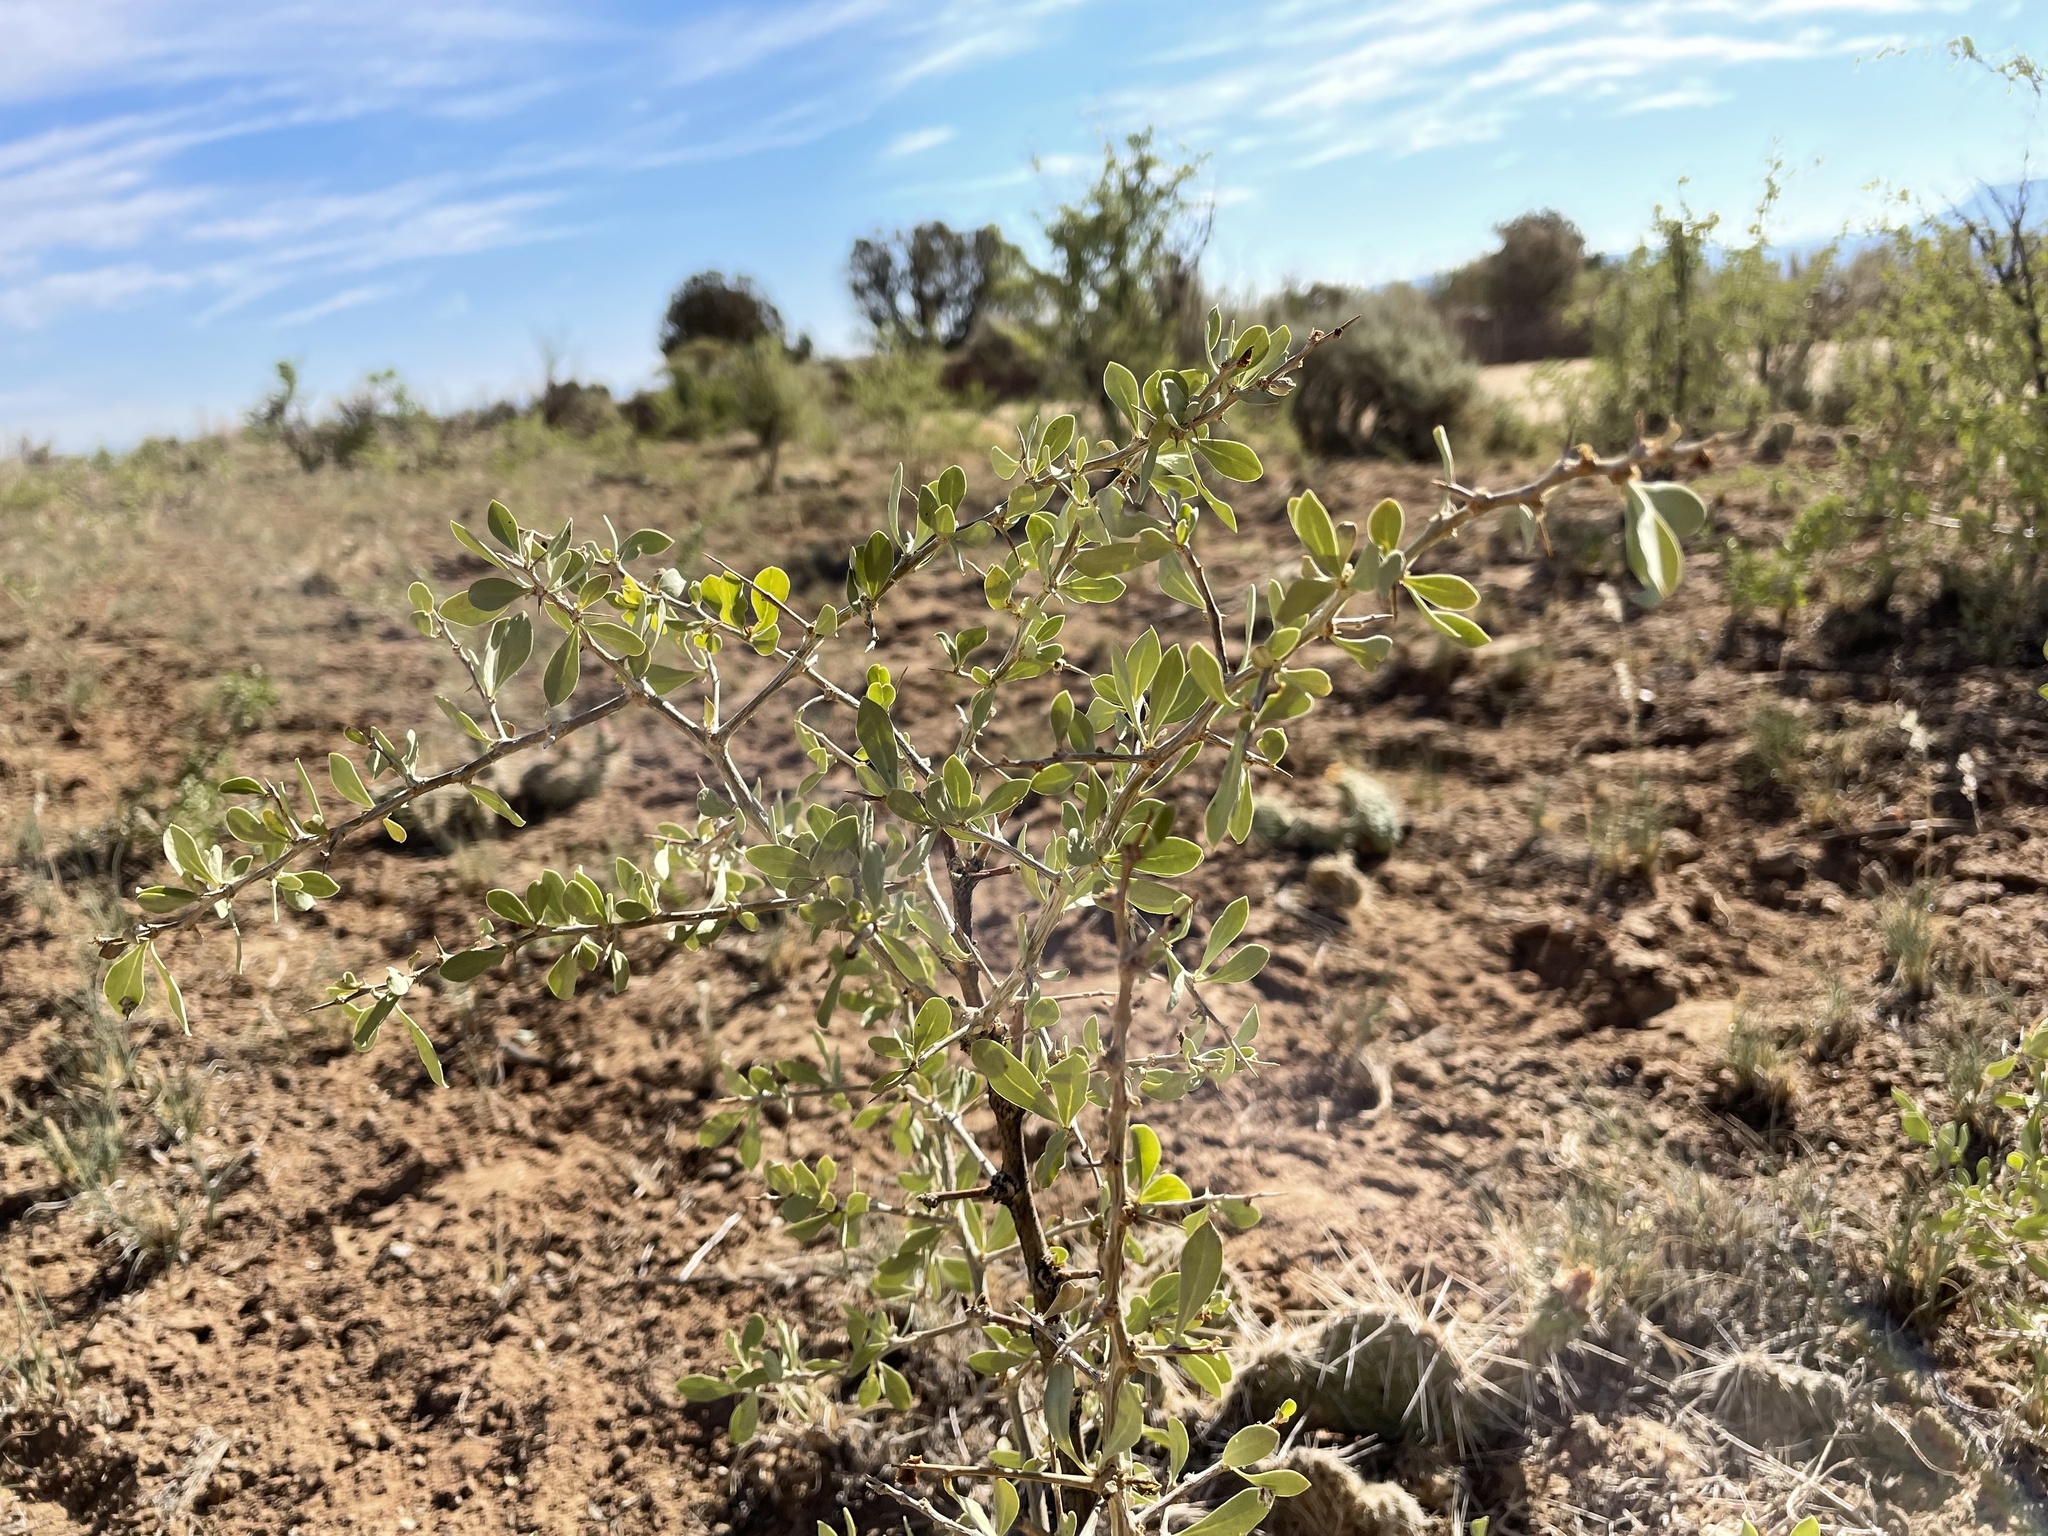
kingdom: Plantae
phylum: Tracheophyta
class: Magnoliopsida
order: Solanales
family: Solanaceae
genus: Lycium
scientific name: Lycium pallidum
